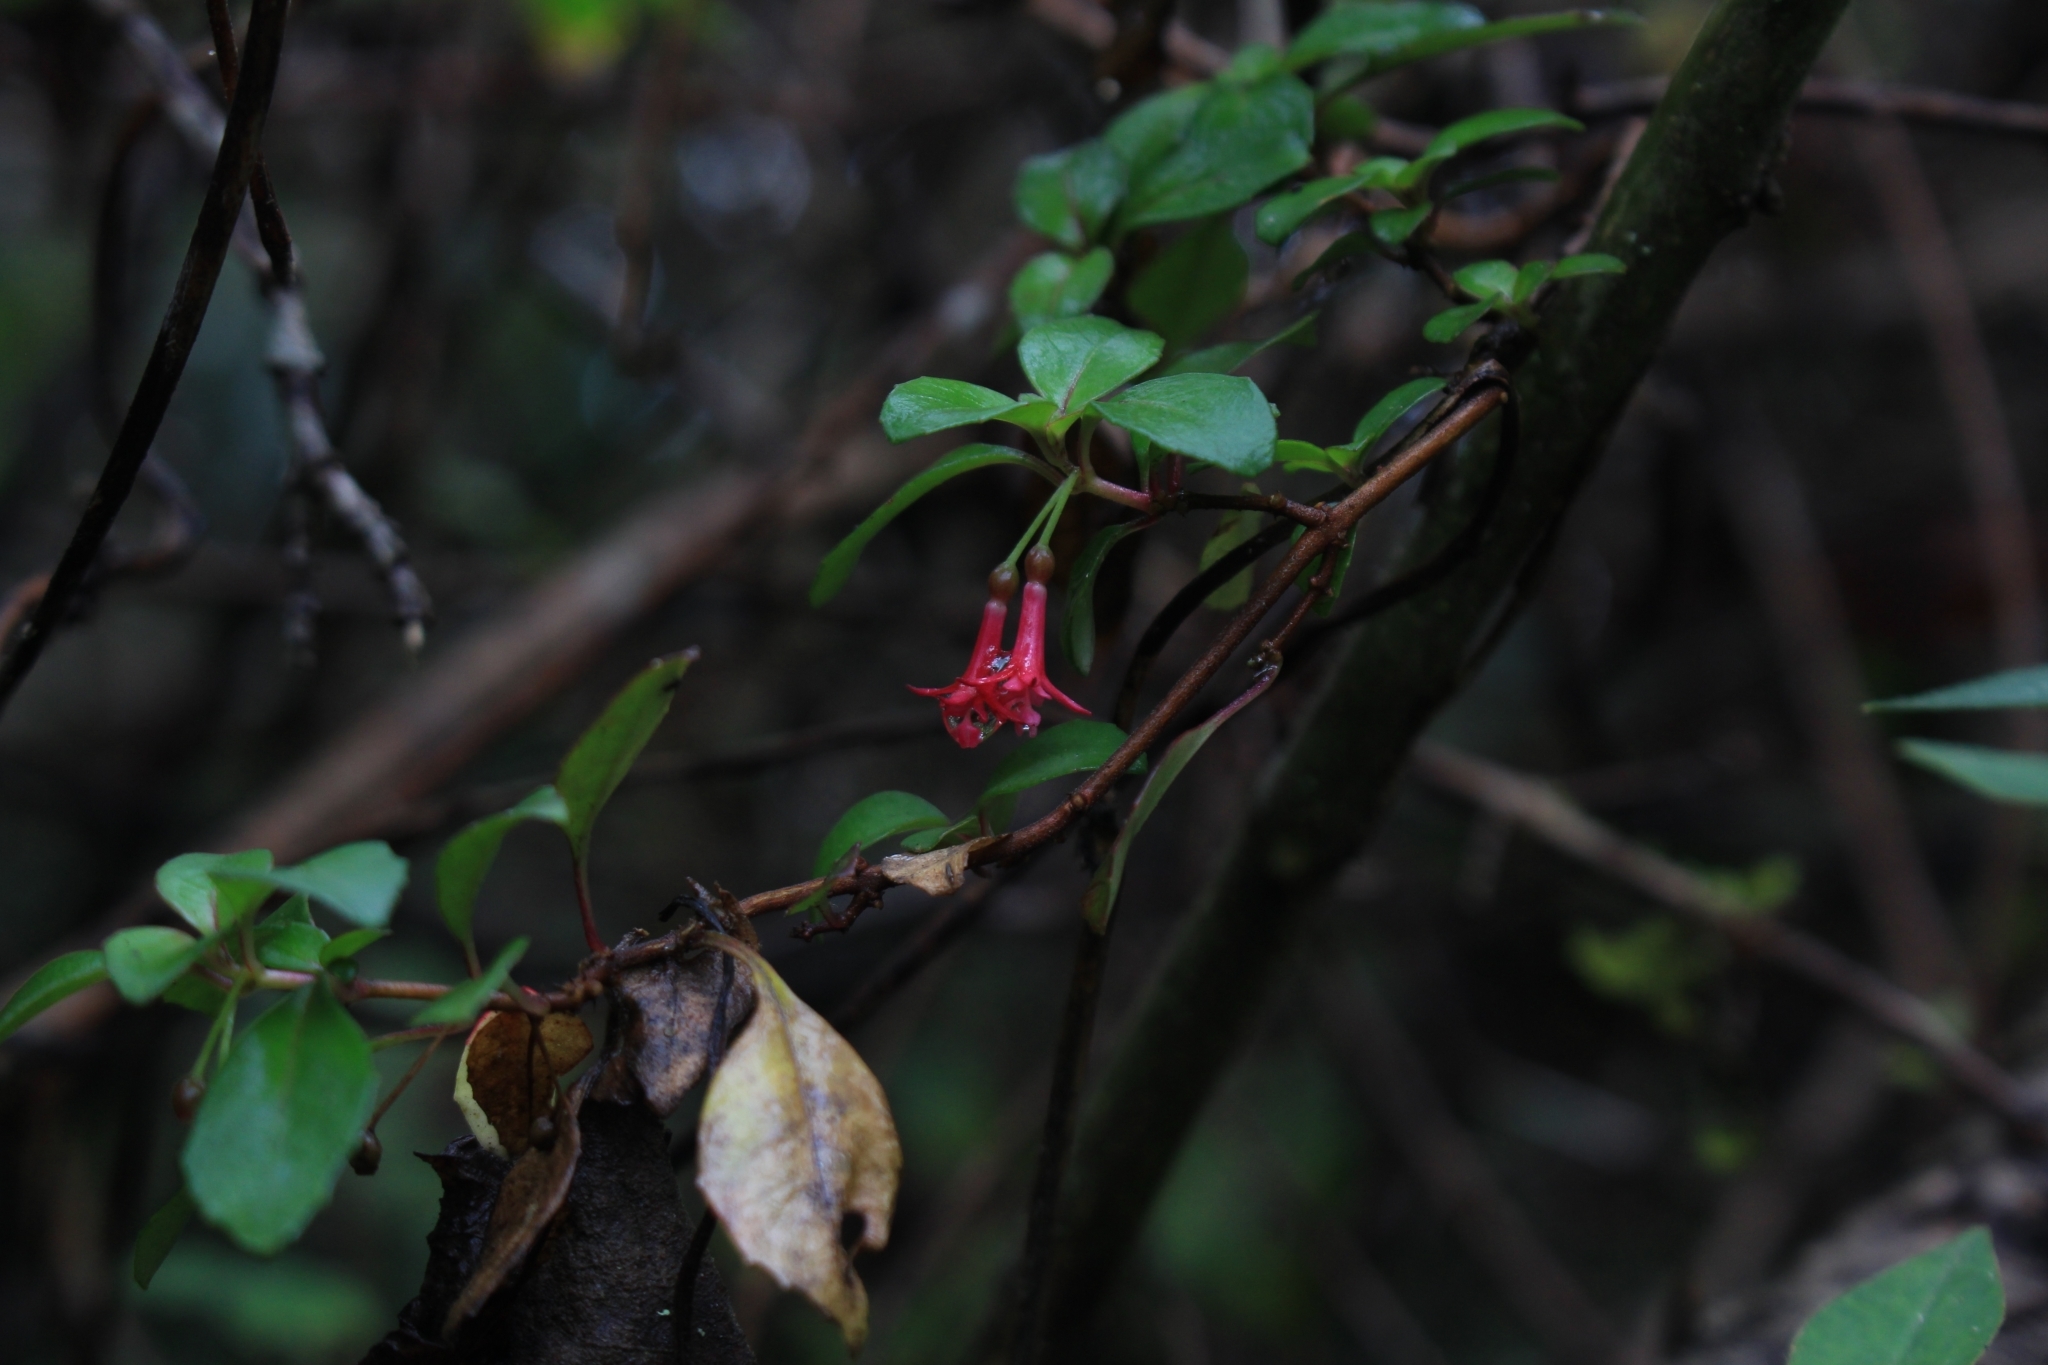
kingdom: Plantae
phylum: Tracheophyta
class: Magnoliopsida
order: Myrtales
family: Onagraceae
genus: Fuchsia
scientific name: Fuchsia microphylla
